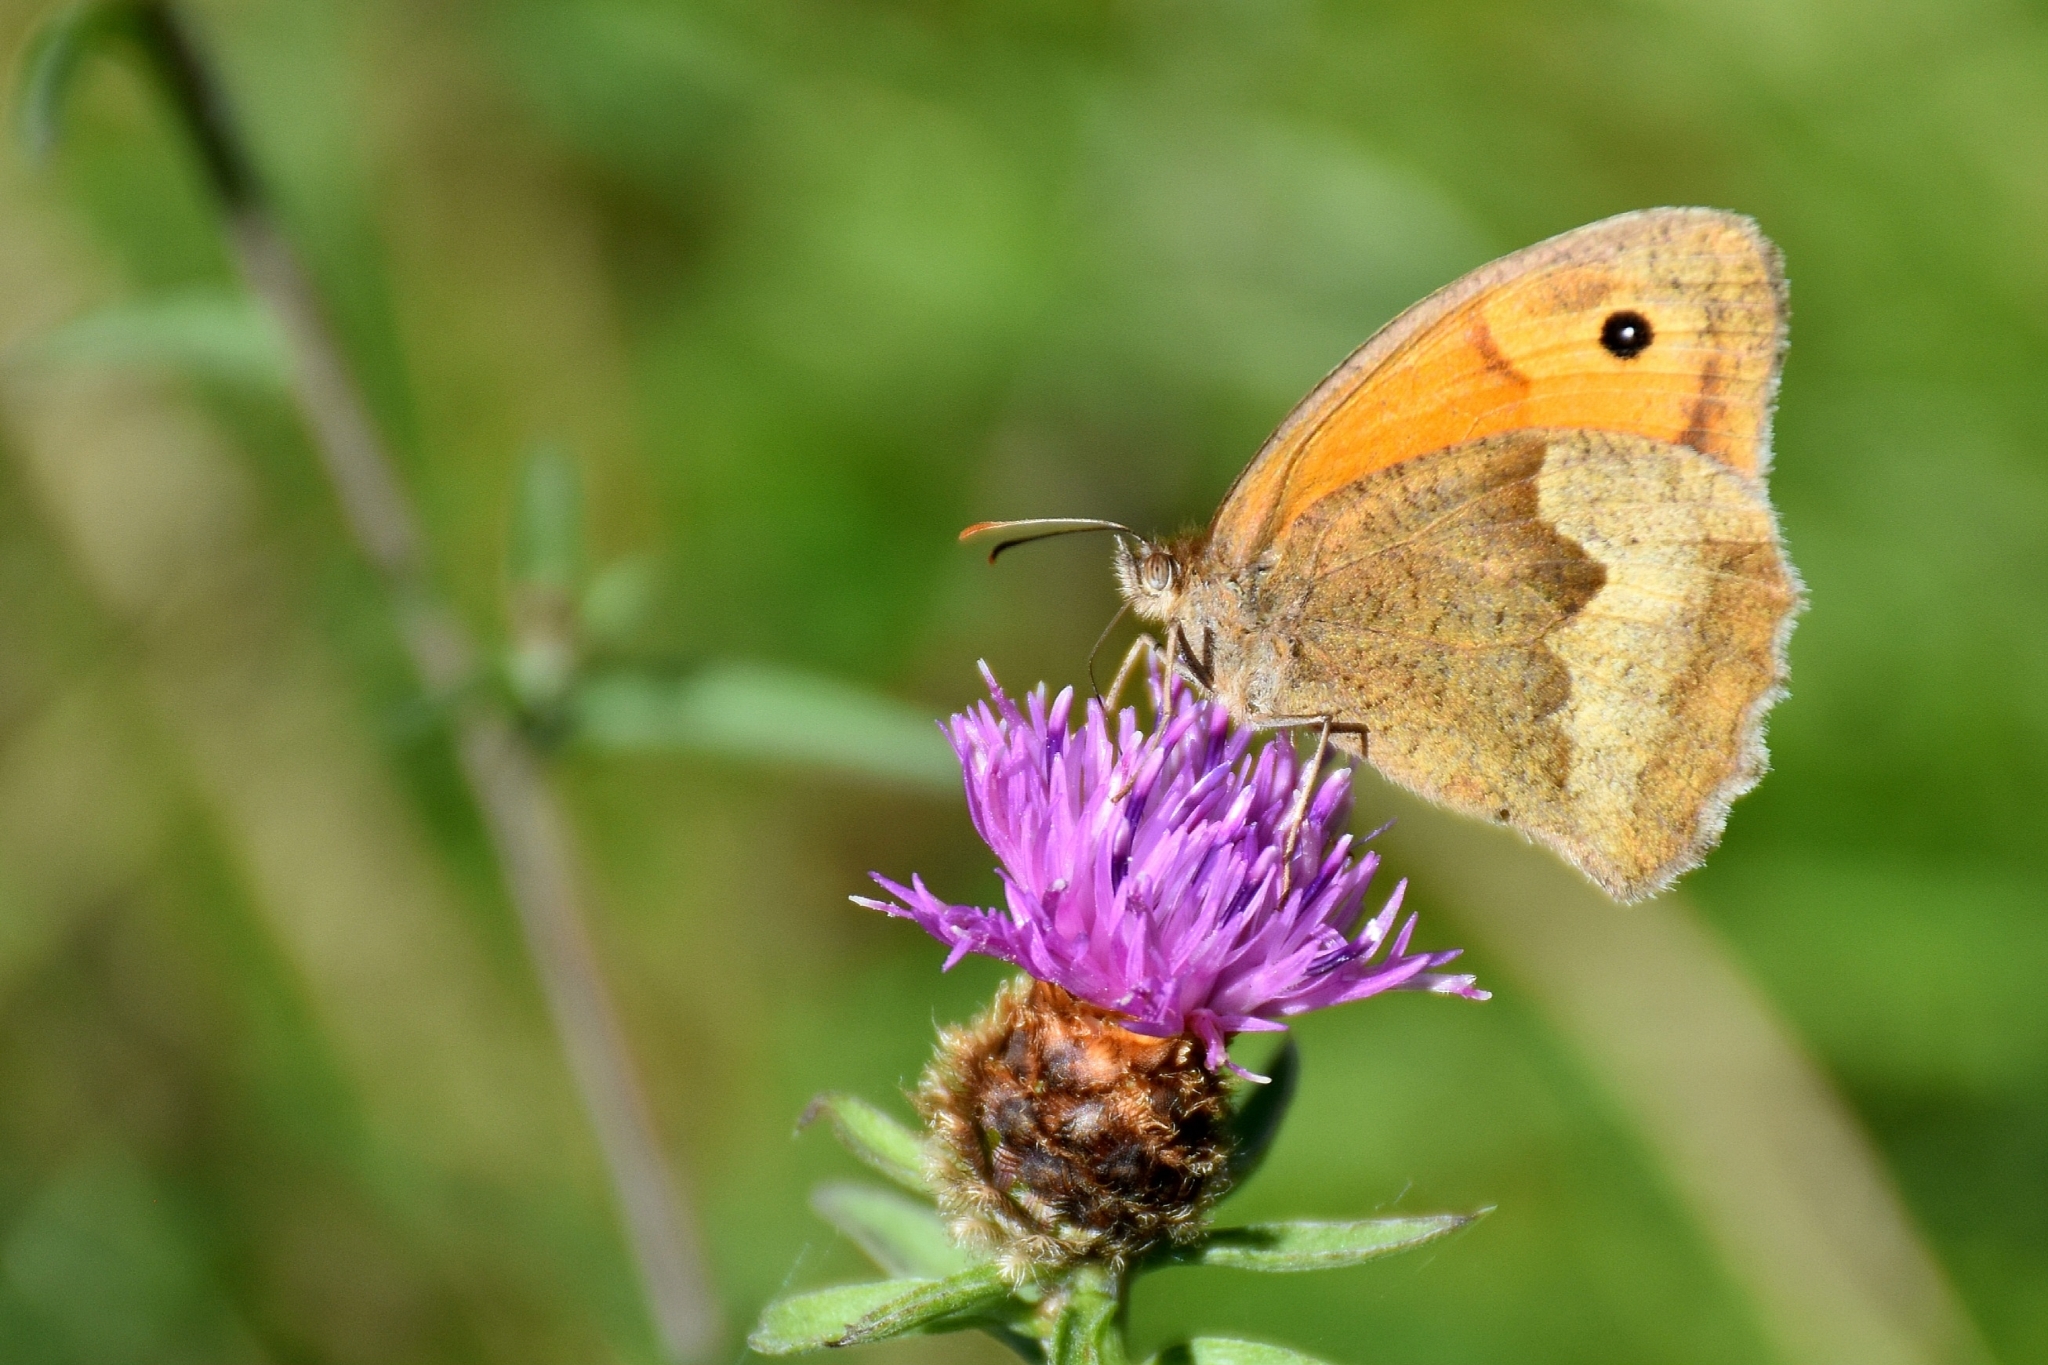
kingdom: Animalia
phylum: Arthropoda
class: Insecta
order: Lepidoptera
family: Nymphalidae
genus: Maniola
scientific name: Maniola jurtina
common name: Meadow brown
